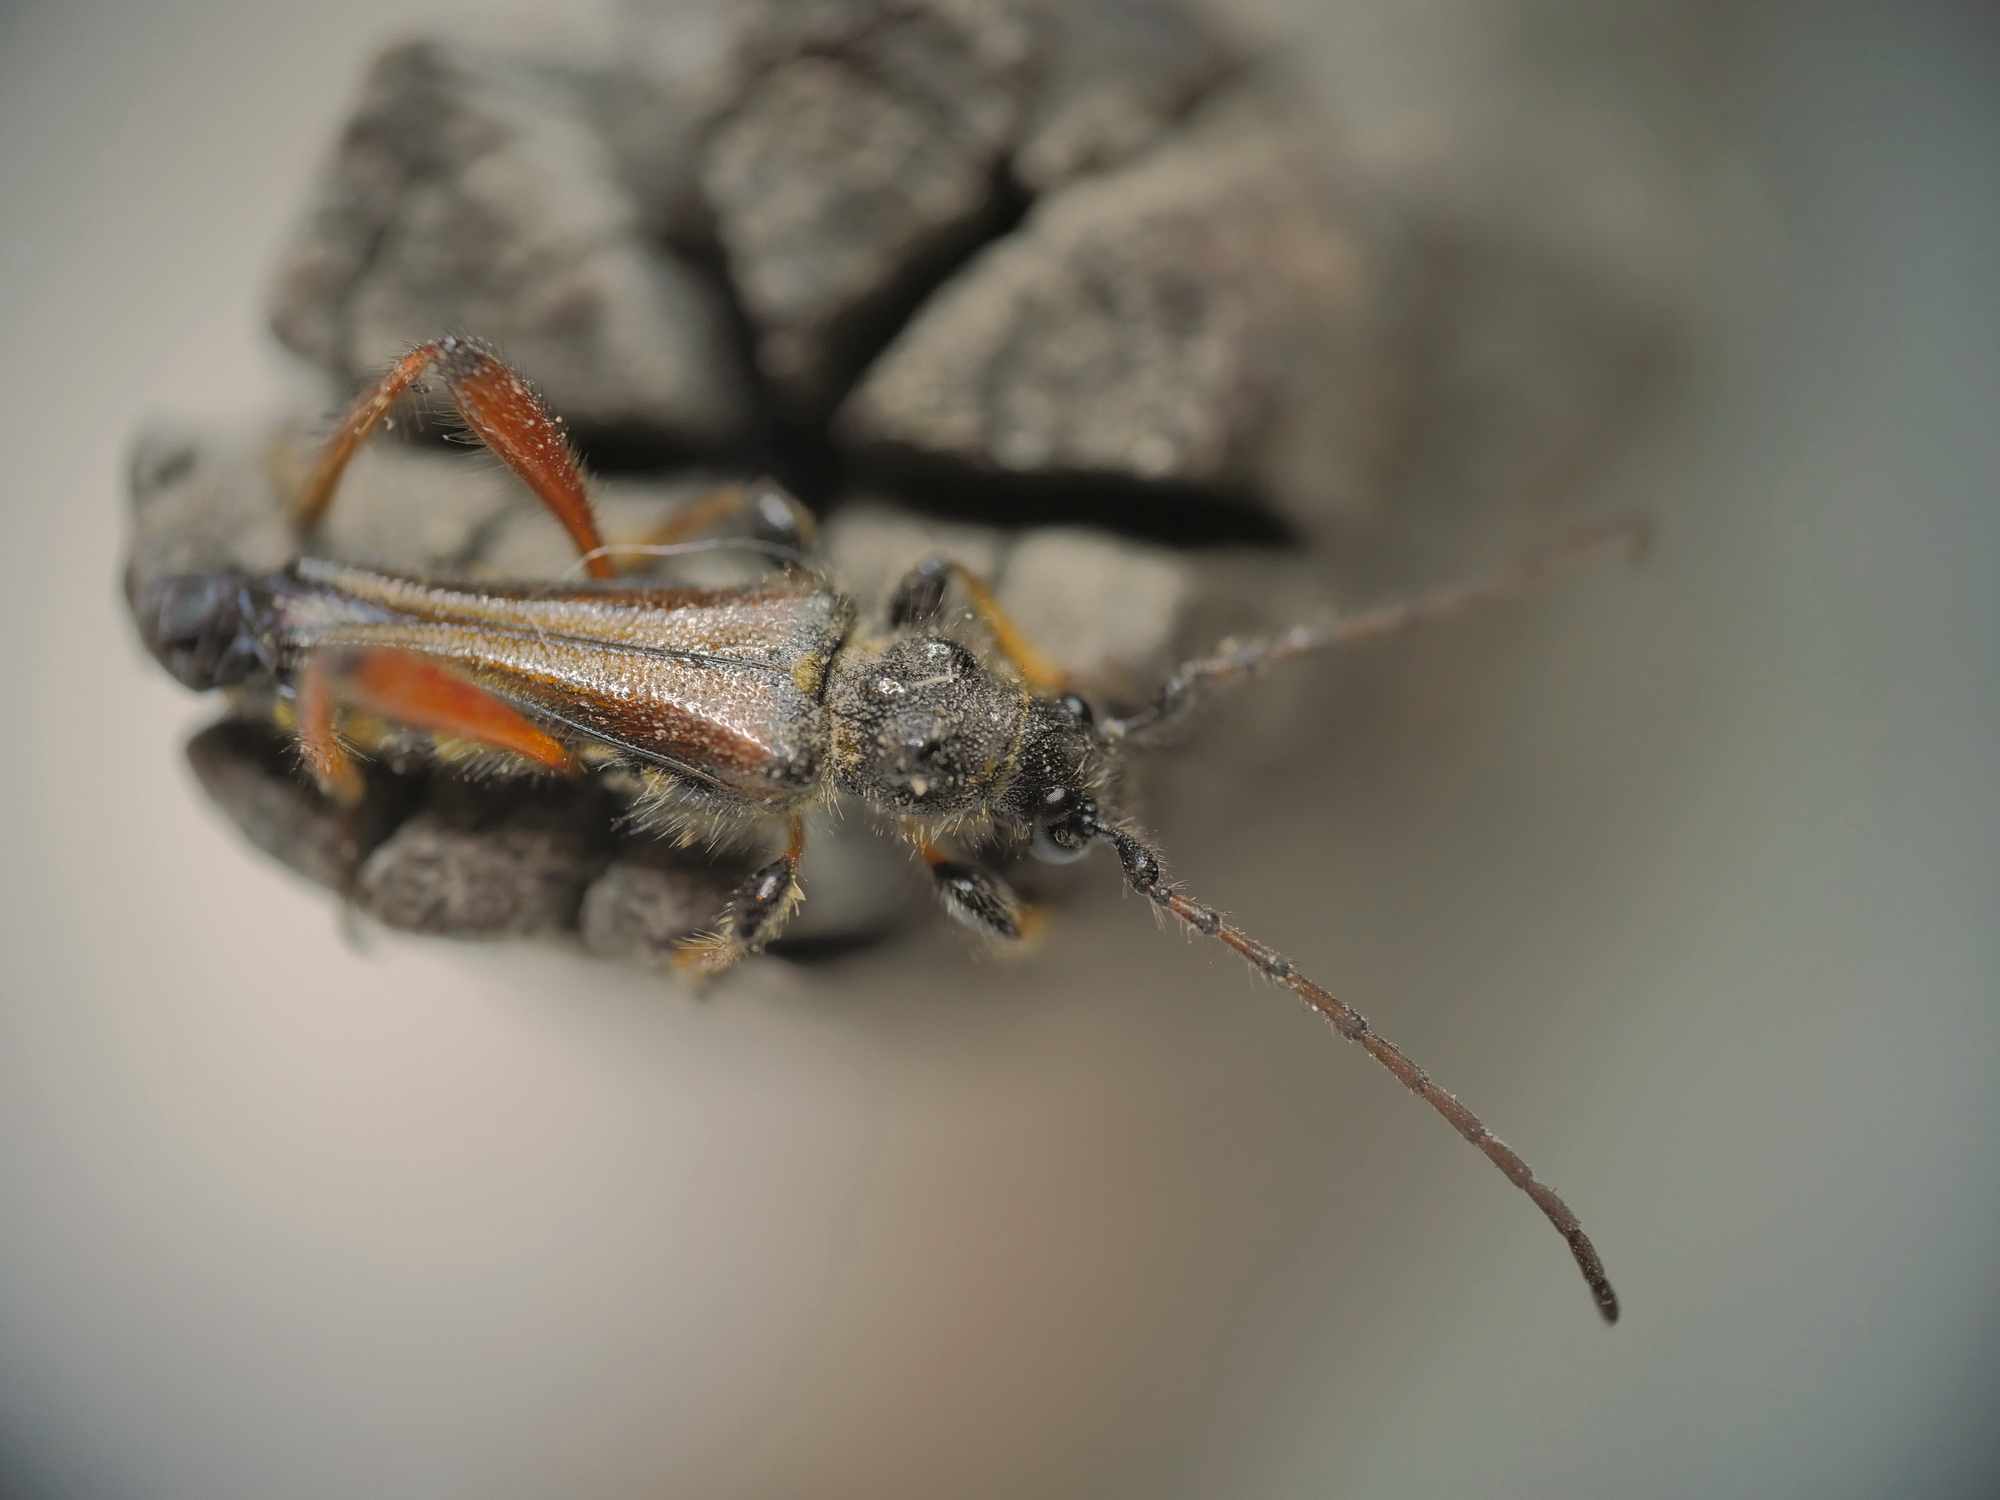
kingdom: Animalia
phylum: Arthropoda
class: Insecta
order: Coleoptera
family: Cerambycidae
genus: Stenopterus
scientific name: Stenopterus rufus
